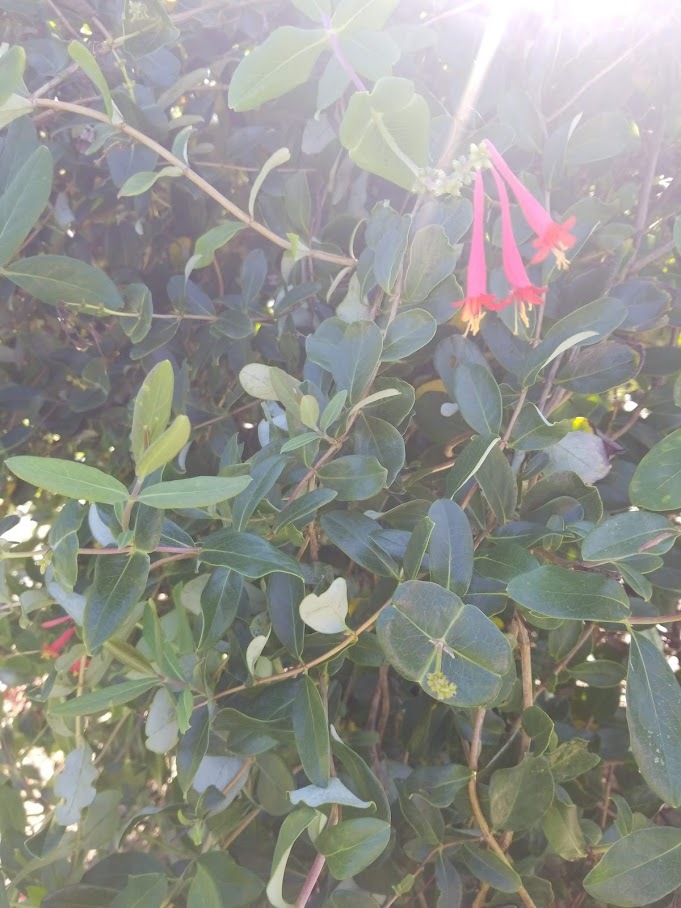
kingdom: Plantae
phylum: Tracheophyta
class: Magnoliopsida
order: Dipsacales
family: Caprifoliaceae
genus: Lonicera
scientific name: Lonicera sempervirens
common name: Coral honeysuckle
